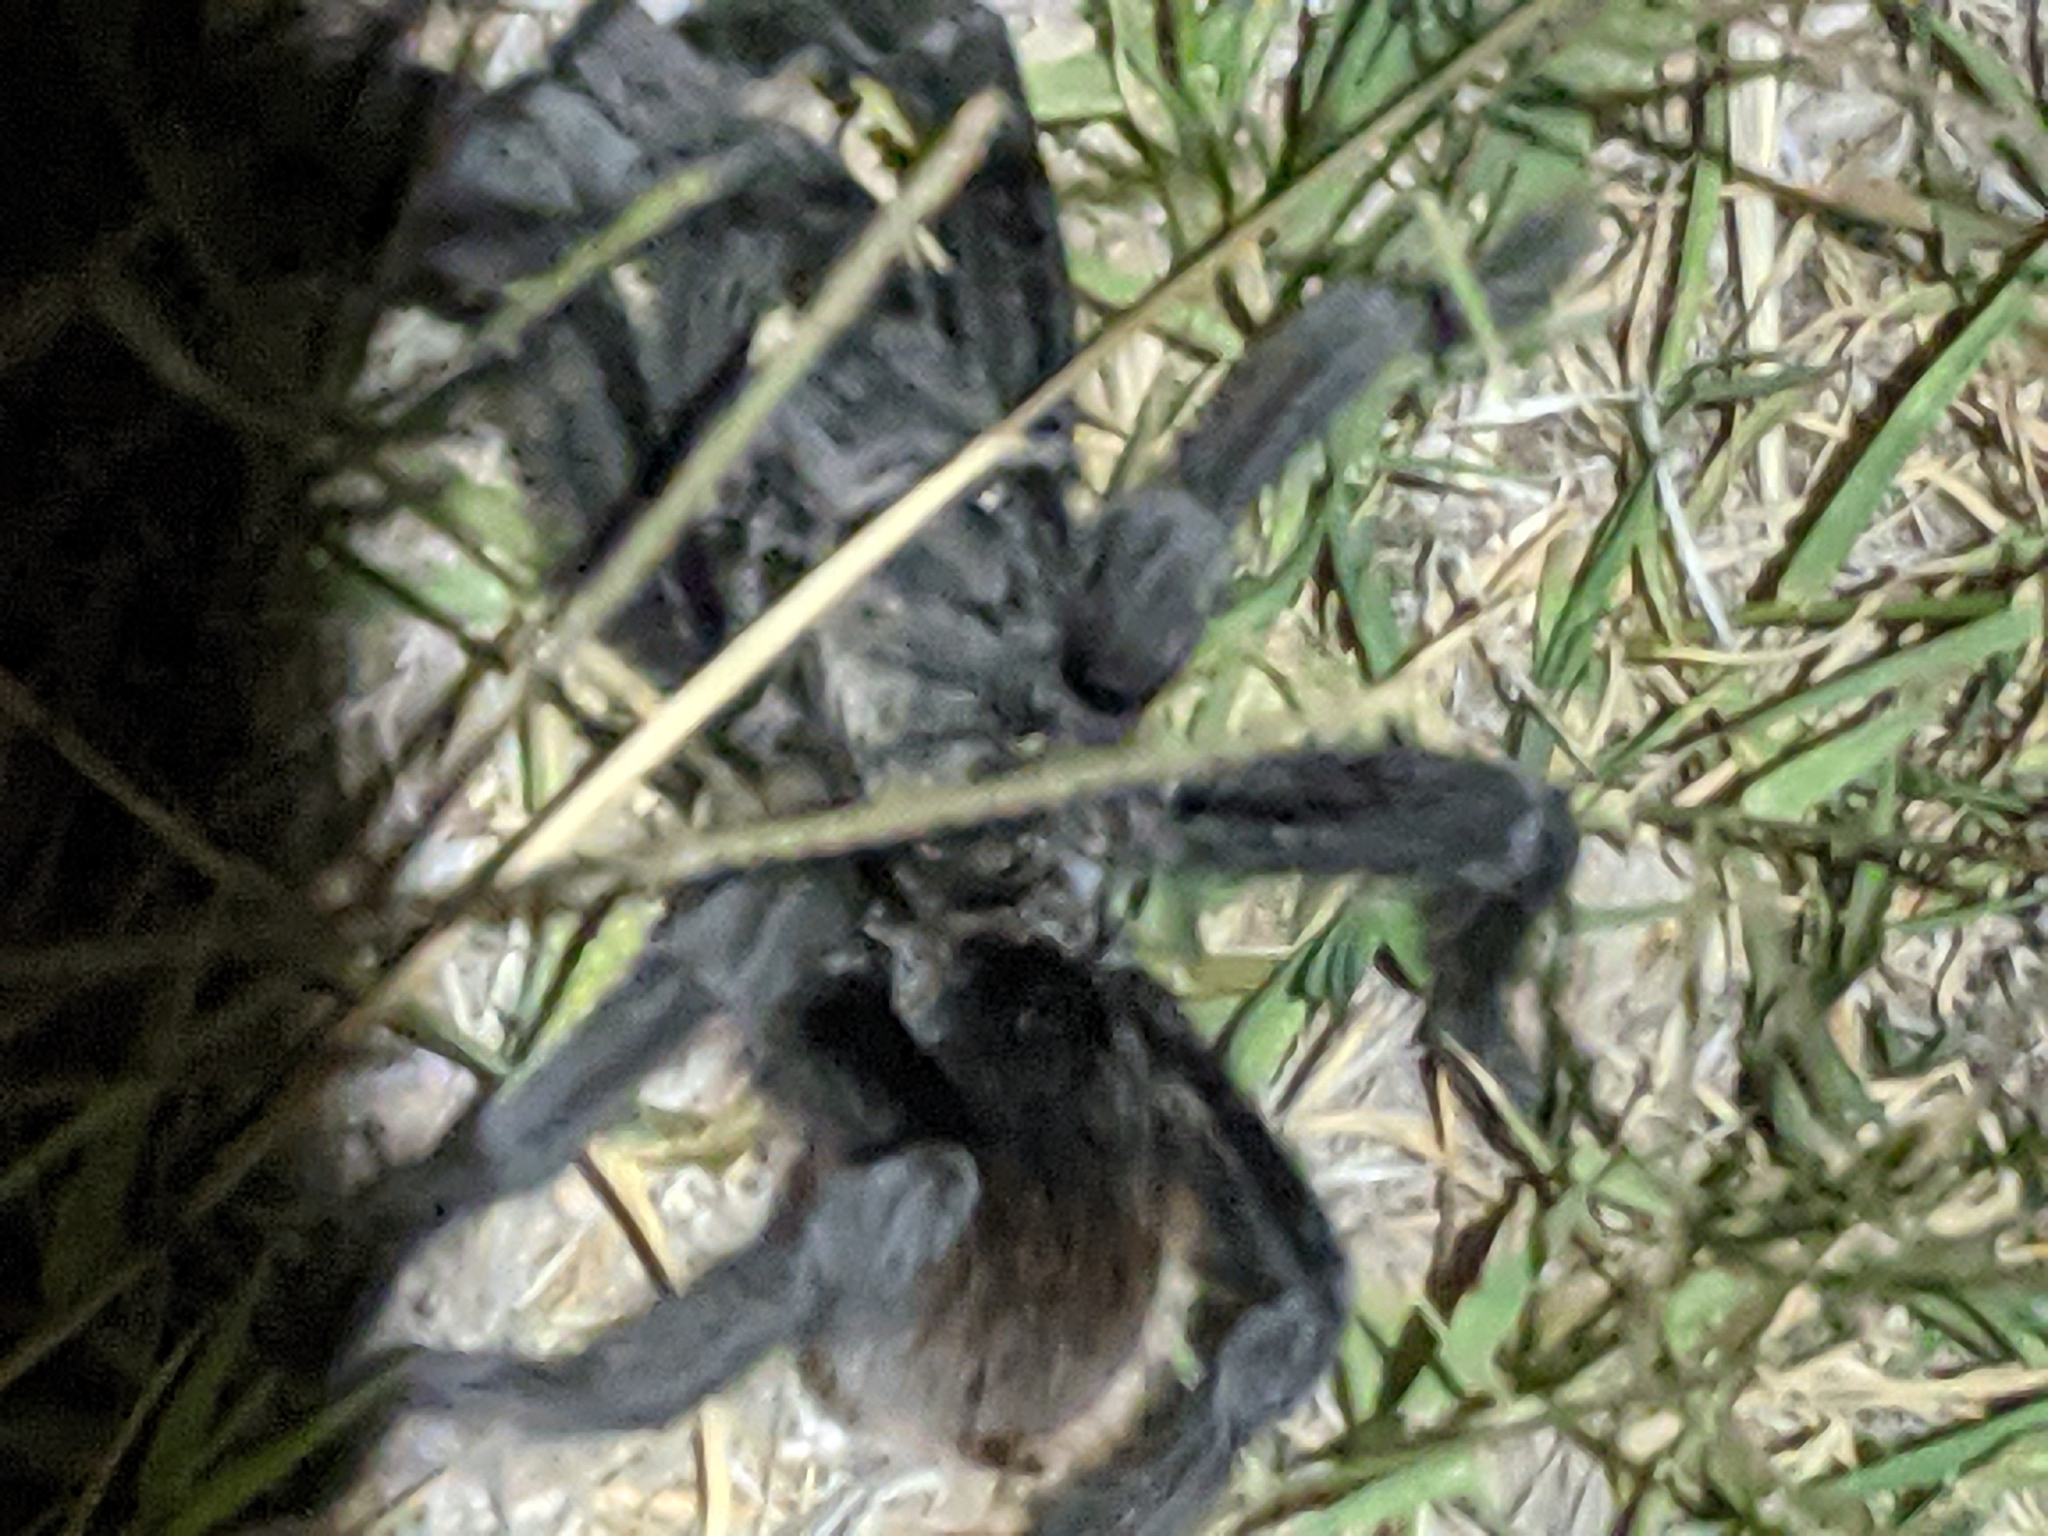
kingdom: Animalia
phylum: Arthropoda
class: Arachnida
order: Araneae
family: Theraphosidae
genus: Aphonopelma
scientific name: Aphonopelma gabeli
